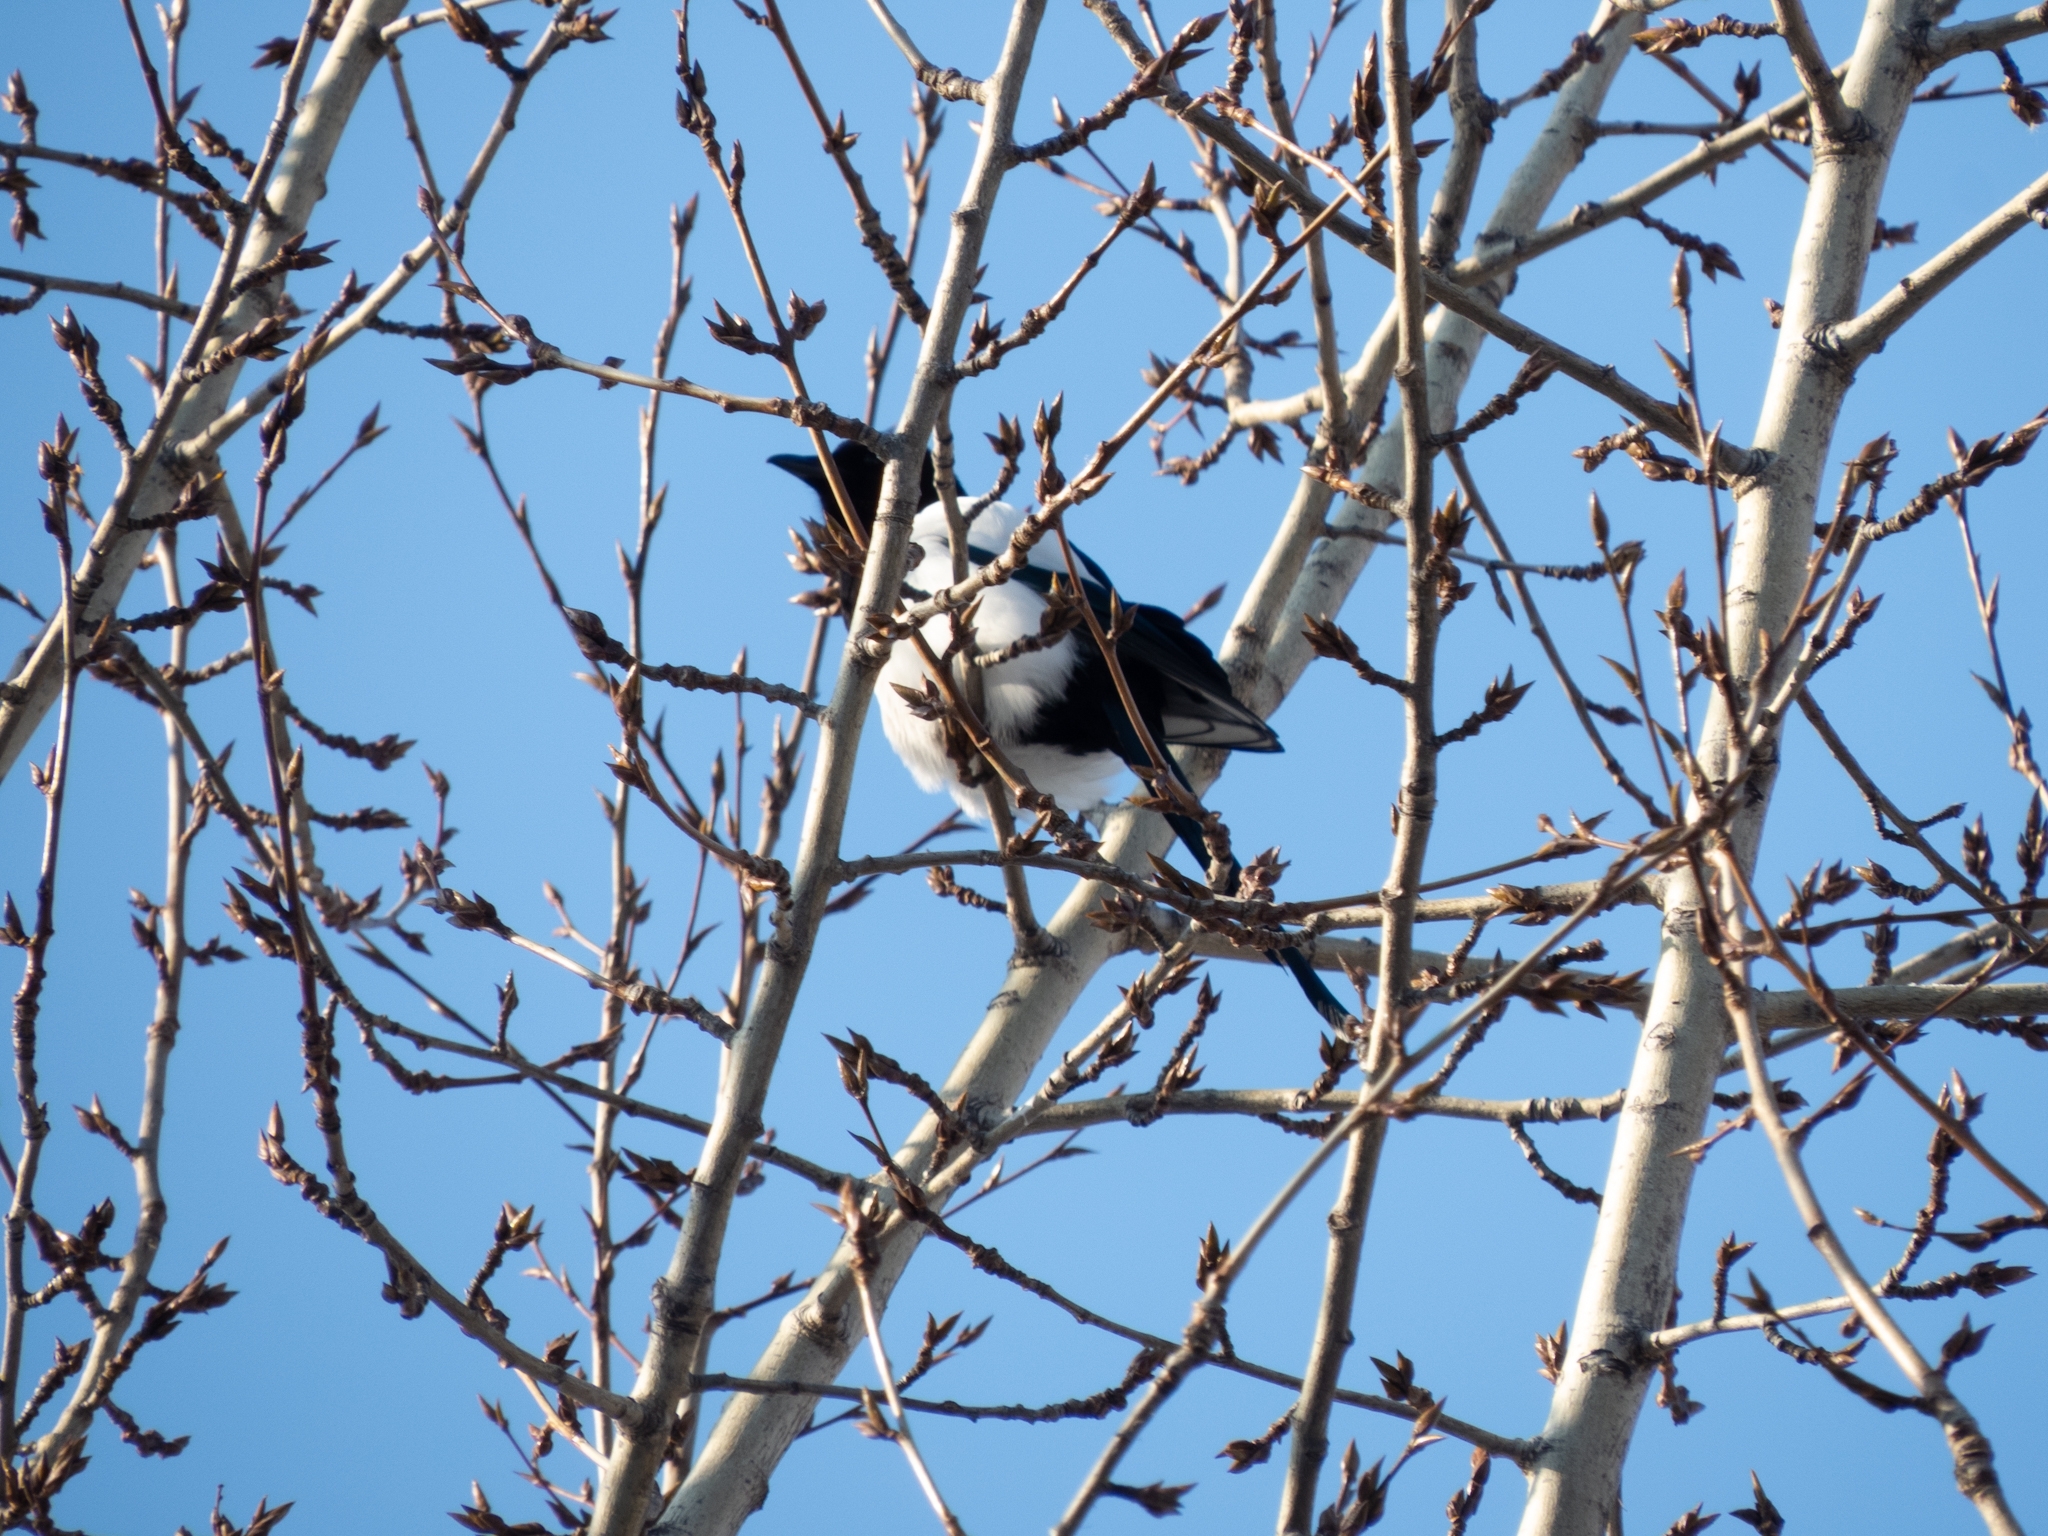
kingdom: Animalia
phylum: Chordata
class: Aves
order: Passeriformes
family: Corvidae
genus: Pica
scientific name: Pica pica
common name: Eurasian magpie
